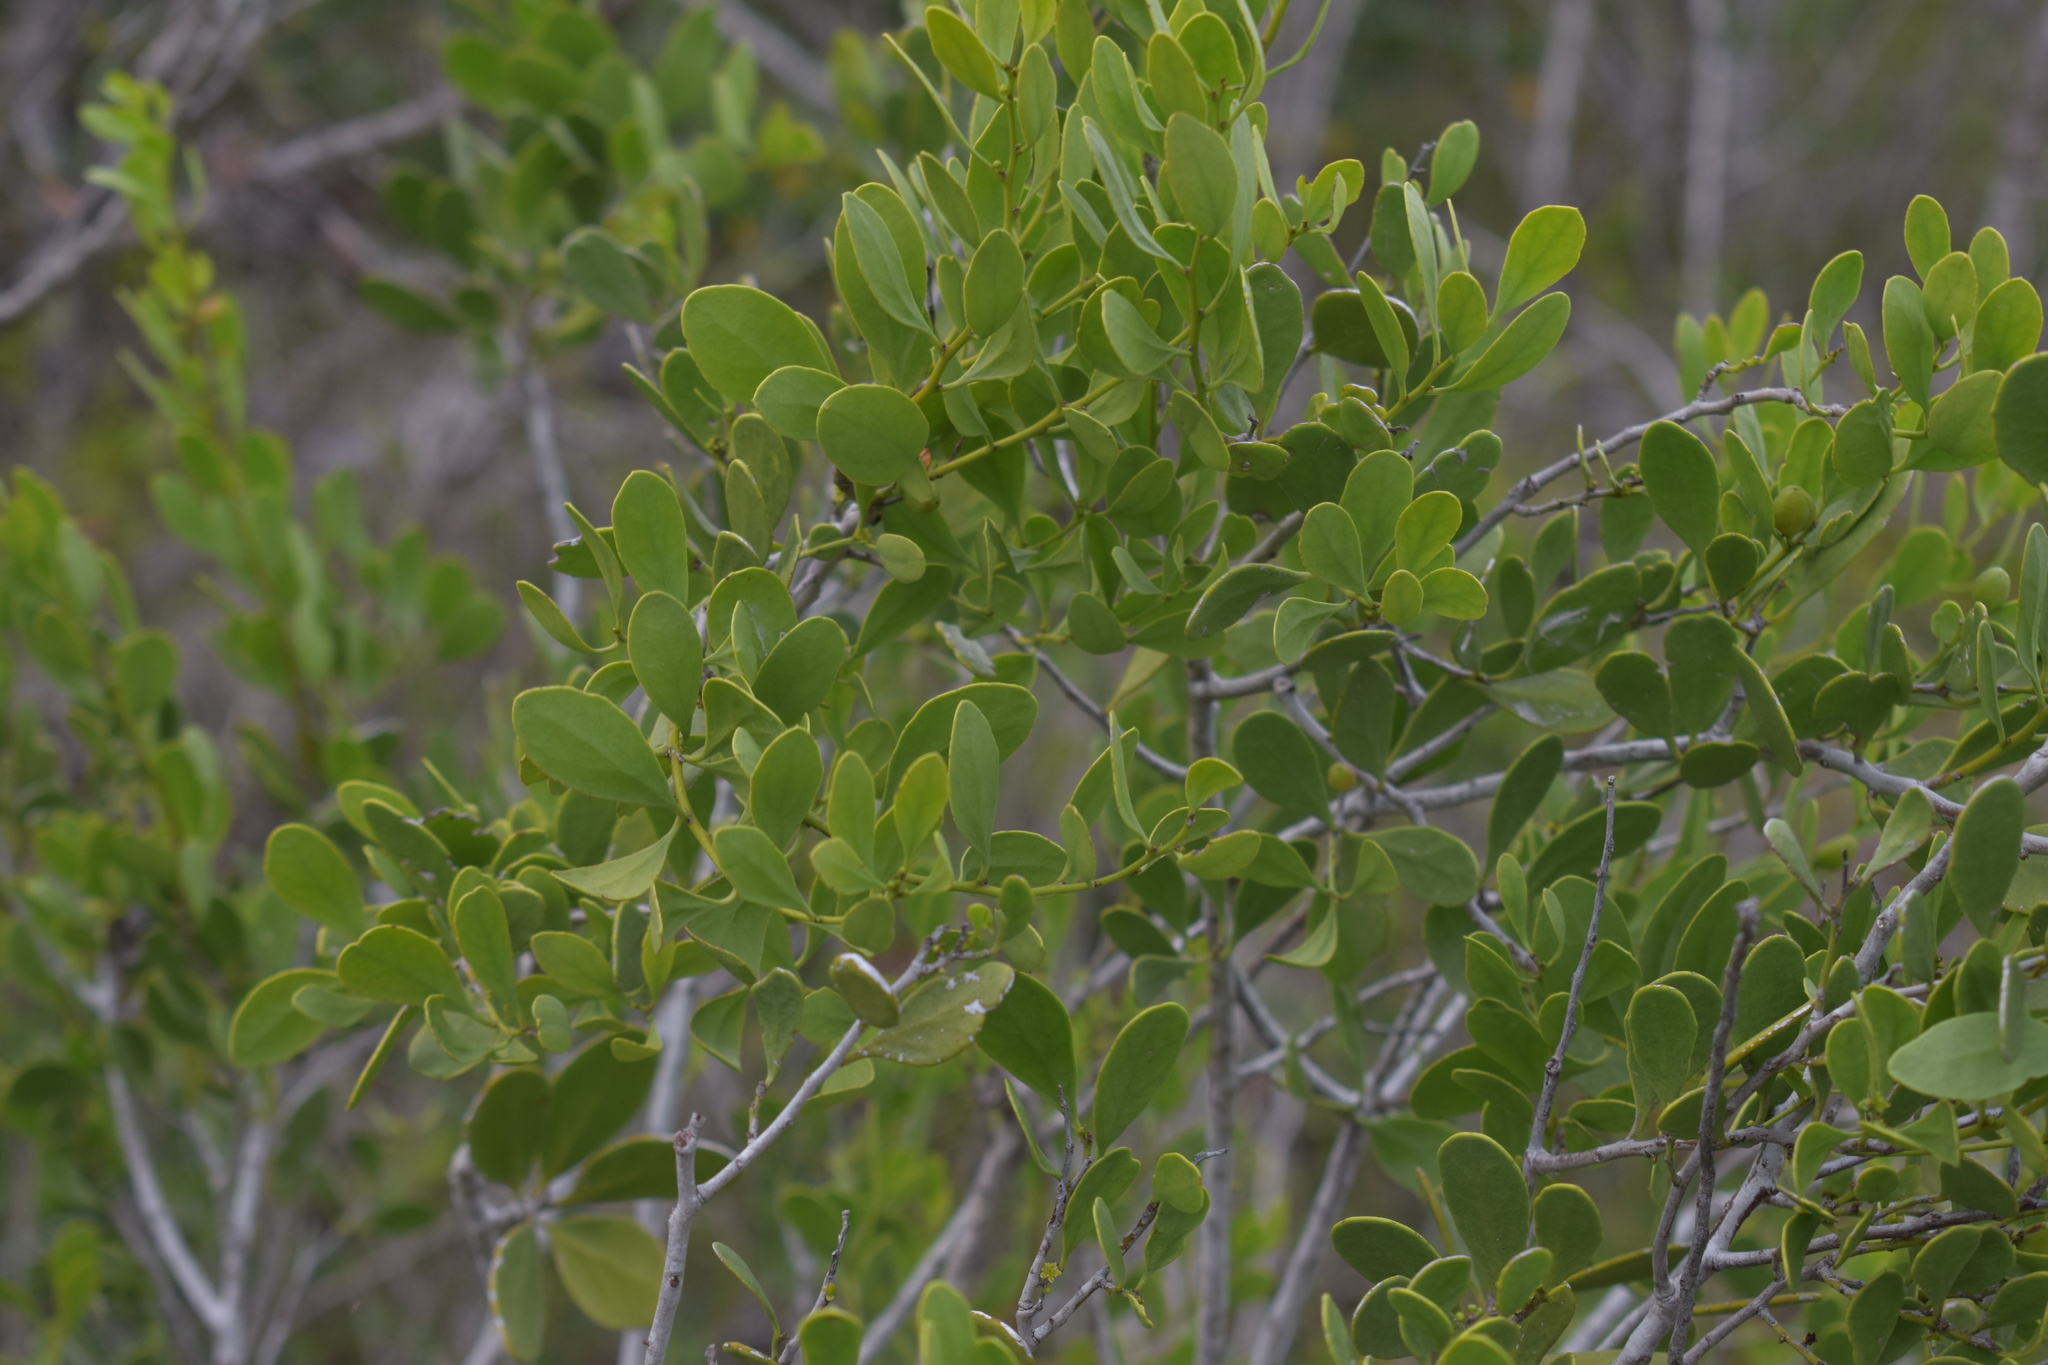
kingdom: Plantae
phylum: Tracheophyta
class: Magnoliopsida
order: Celastrales
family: Celastraceae
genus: Tricerma
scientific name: Tricerma phyllanthoides
